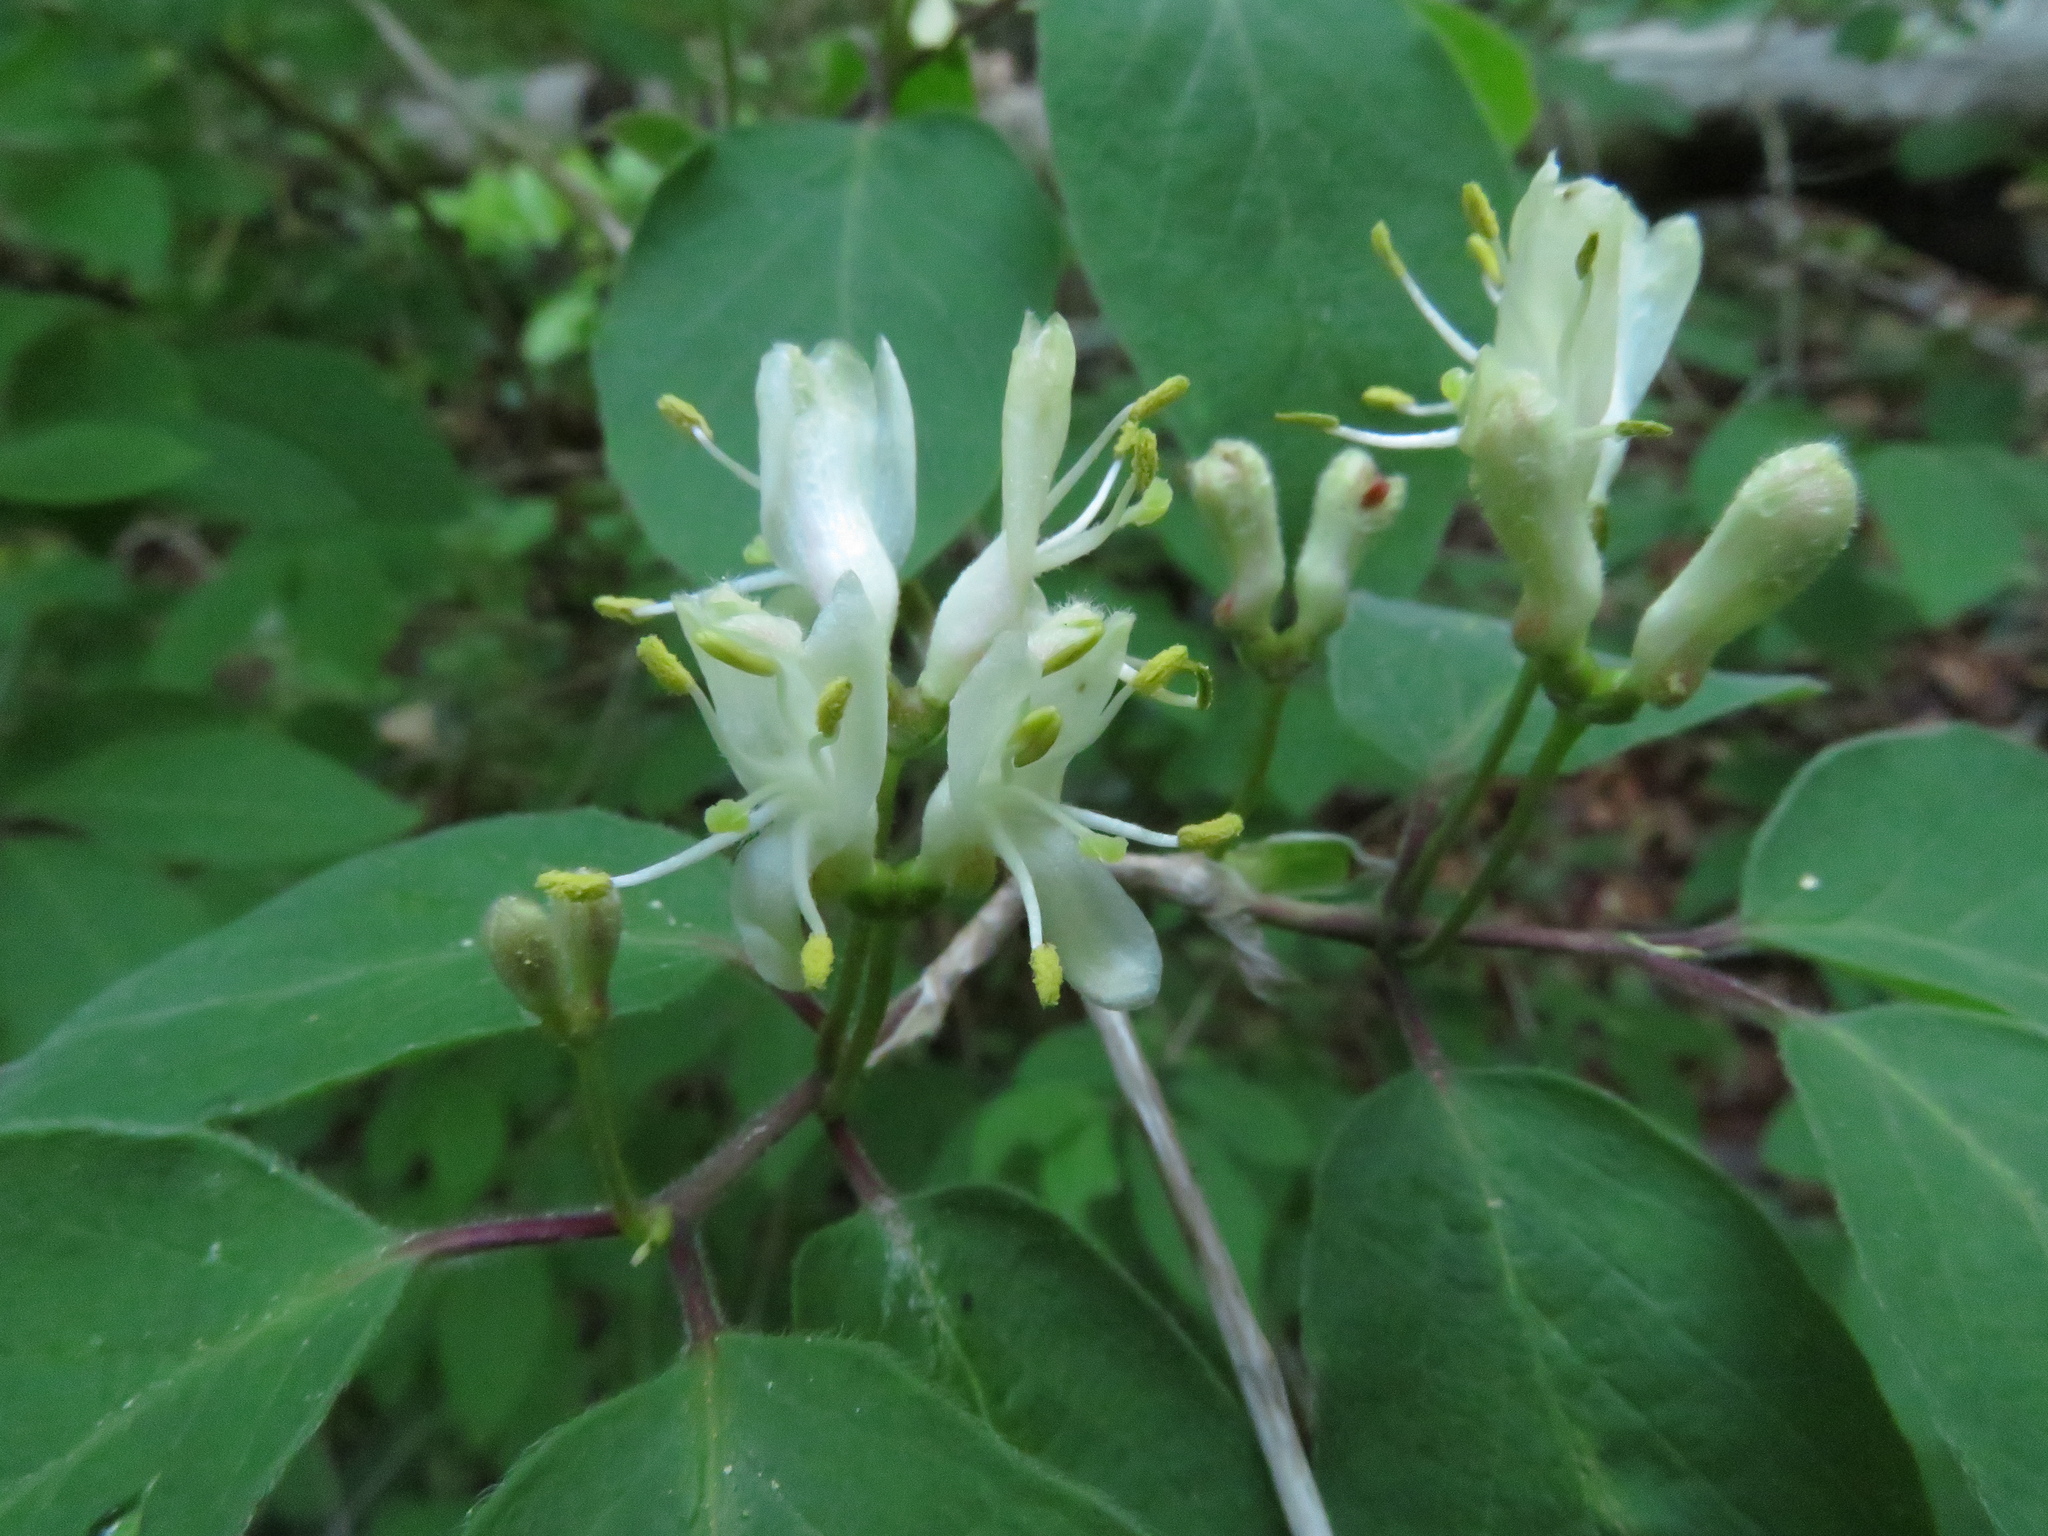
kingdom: Plantae
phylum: Tracheophyta
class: Magnoliopsida
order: Dipsacales
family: Caprifoliaceae
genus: Lonicera
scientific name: Lonicera xylosteum
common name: Fly honeysuckle
